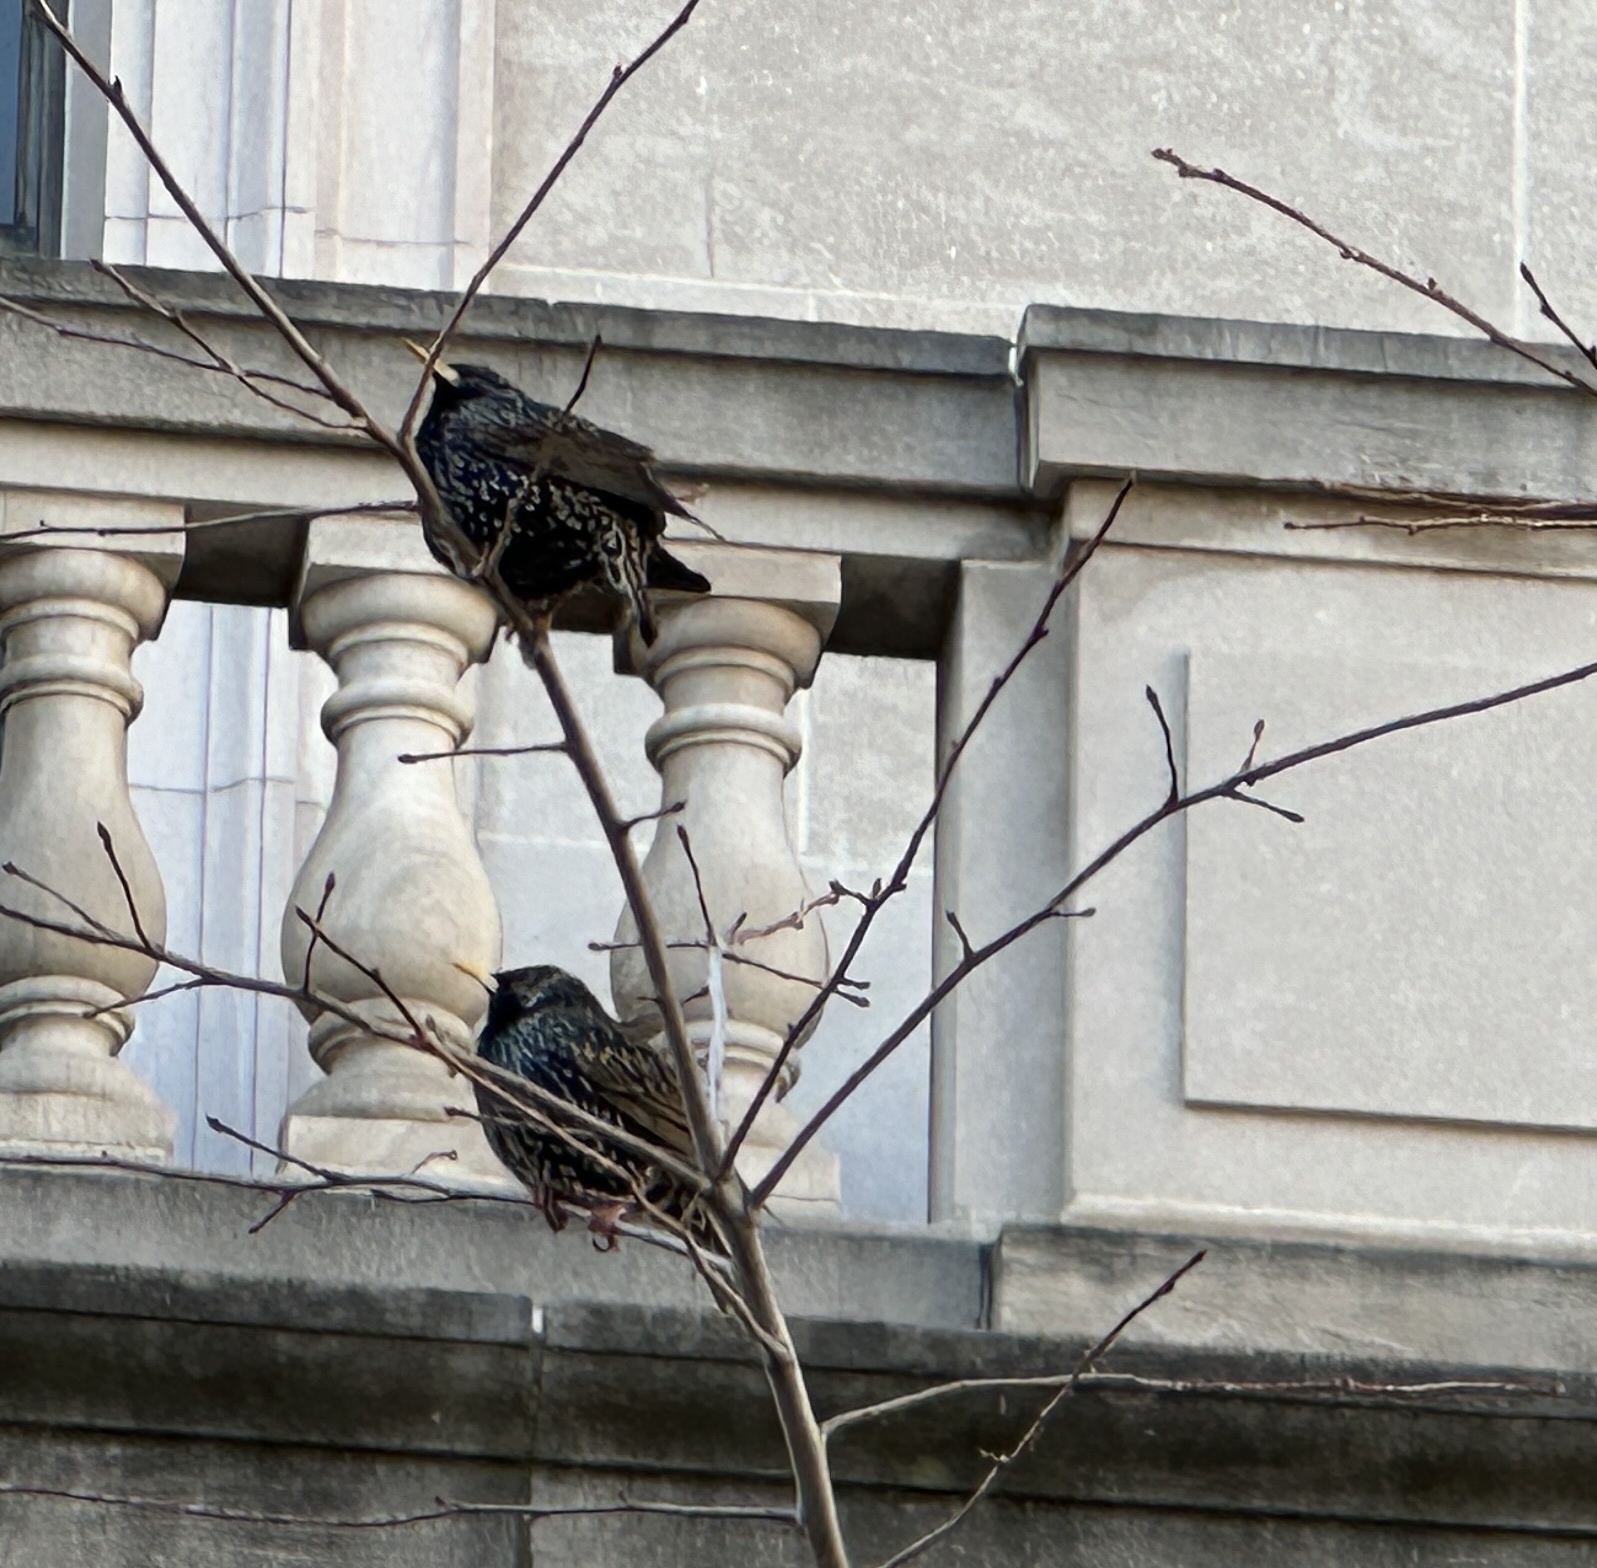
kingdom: Animalia
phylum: Chordata
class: Aves
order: Passeriformes
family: Sturnidae
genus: Sturnus
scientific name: Sturnus vulgaris
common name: Common starling
